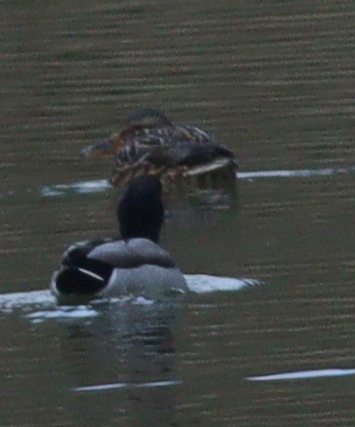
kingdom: Animalia
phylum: Chordata
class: Aves
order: Anseriformes
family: Anatidae
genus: Anas
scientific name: Anas platyrhynchos
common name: Mallard
